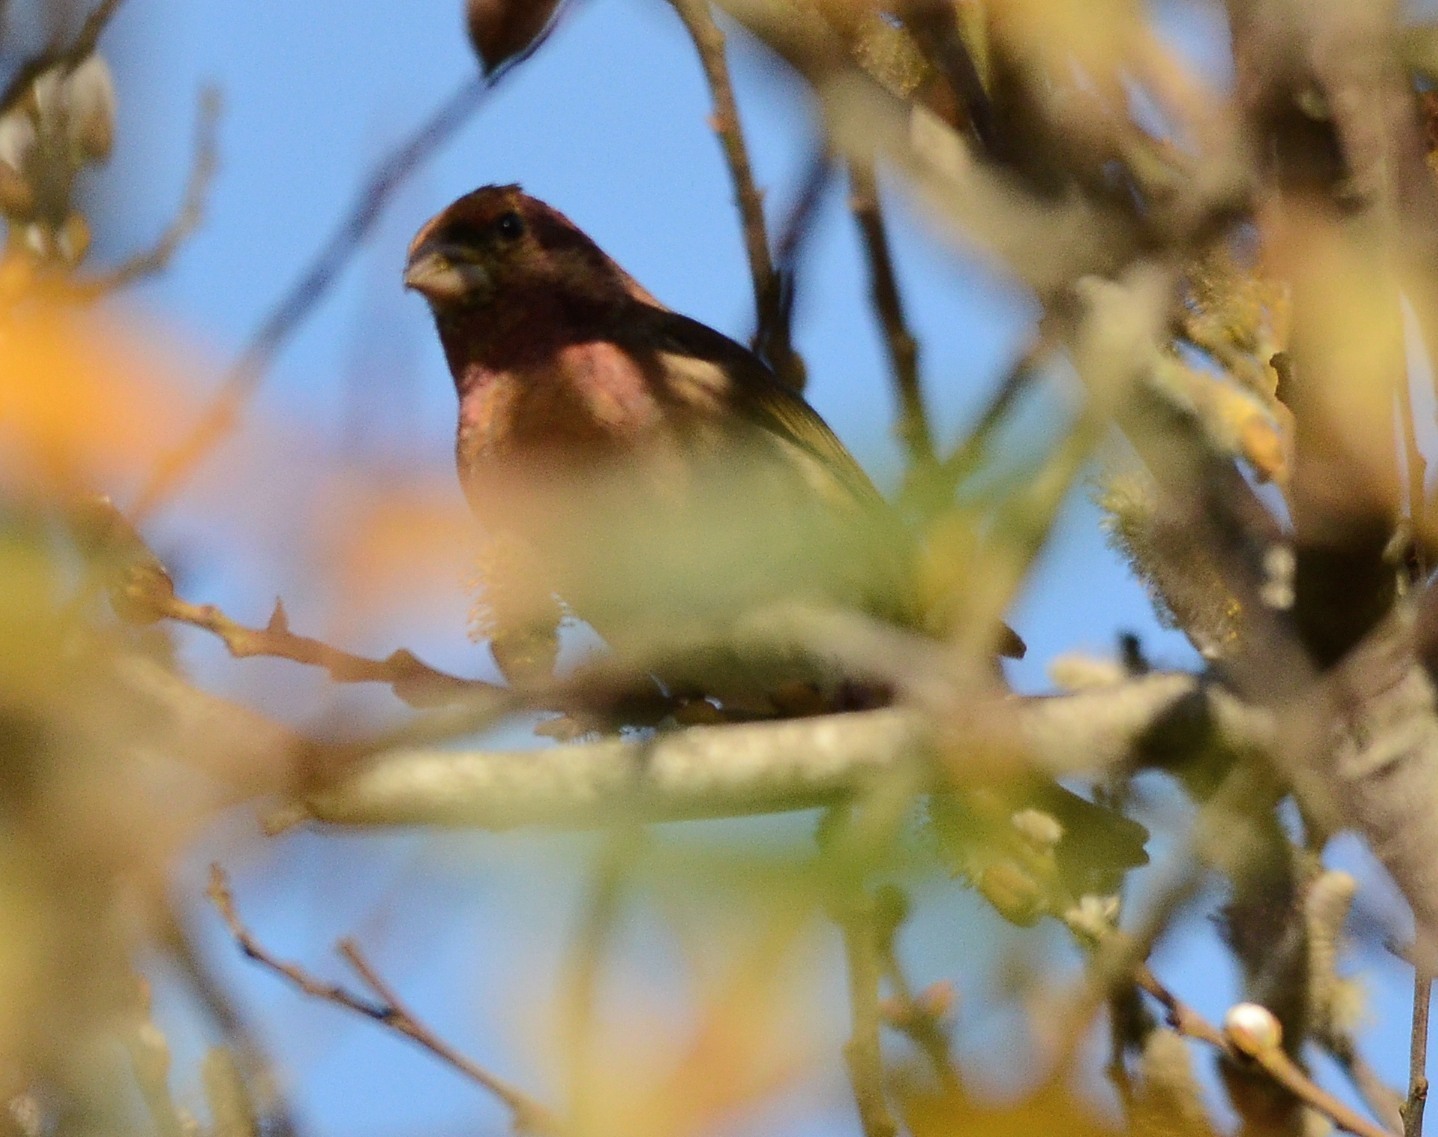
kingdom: Animalia
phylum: Chordata
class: Aves
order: Passeriformes
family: Fringillidae
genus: Haemorhous
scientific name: Haemorhous purpureus
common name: Purple finch
